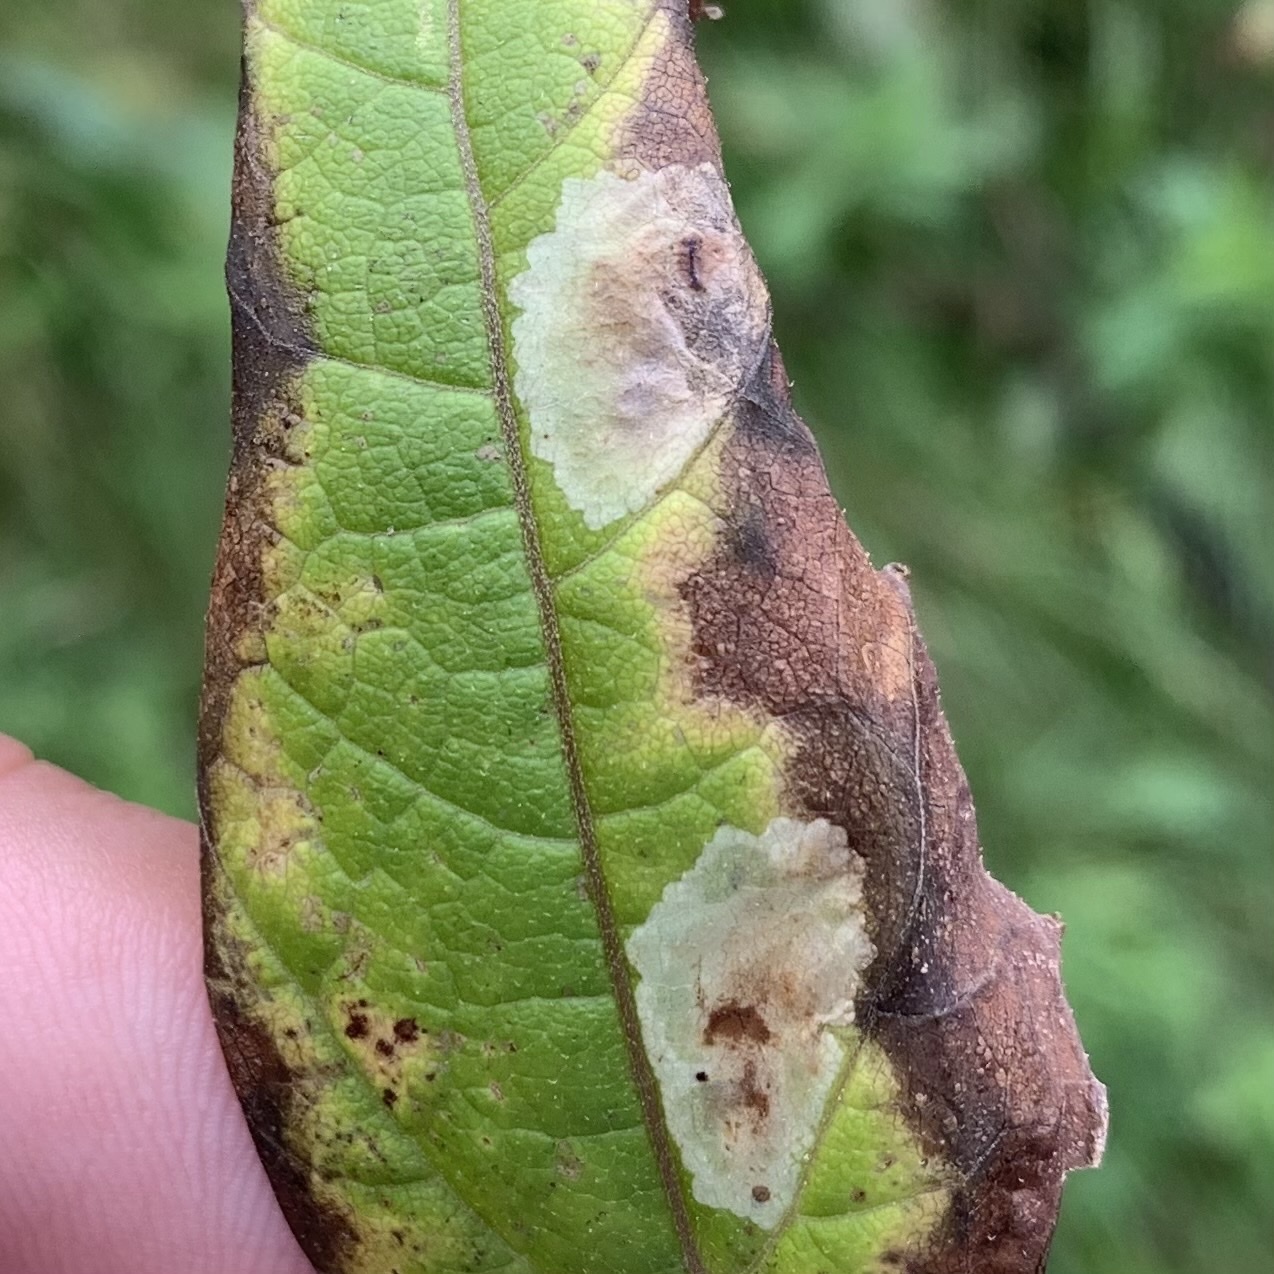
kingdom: Animalia
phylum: Arthropoda
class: Insecta
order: Diptera
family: Agromyzidae
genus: Calycomyza
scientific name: Calycomyza flavinotum
